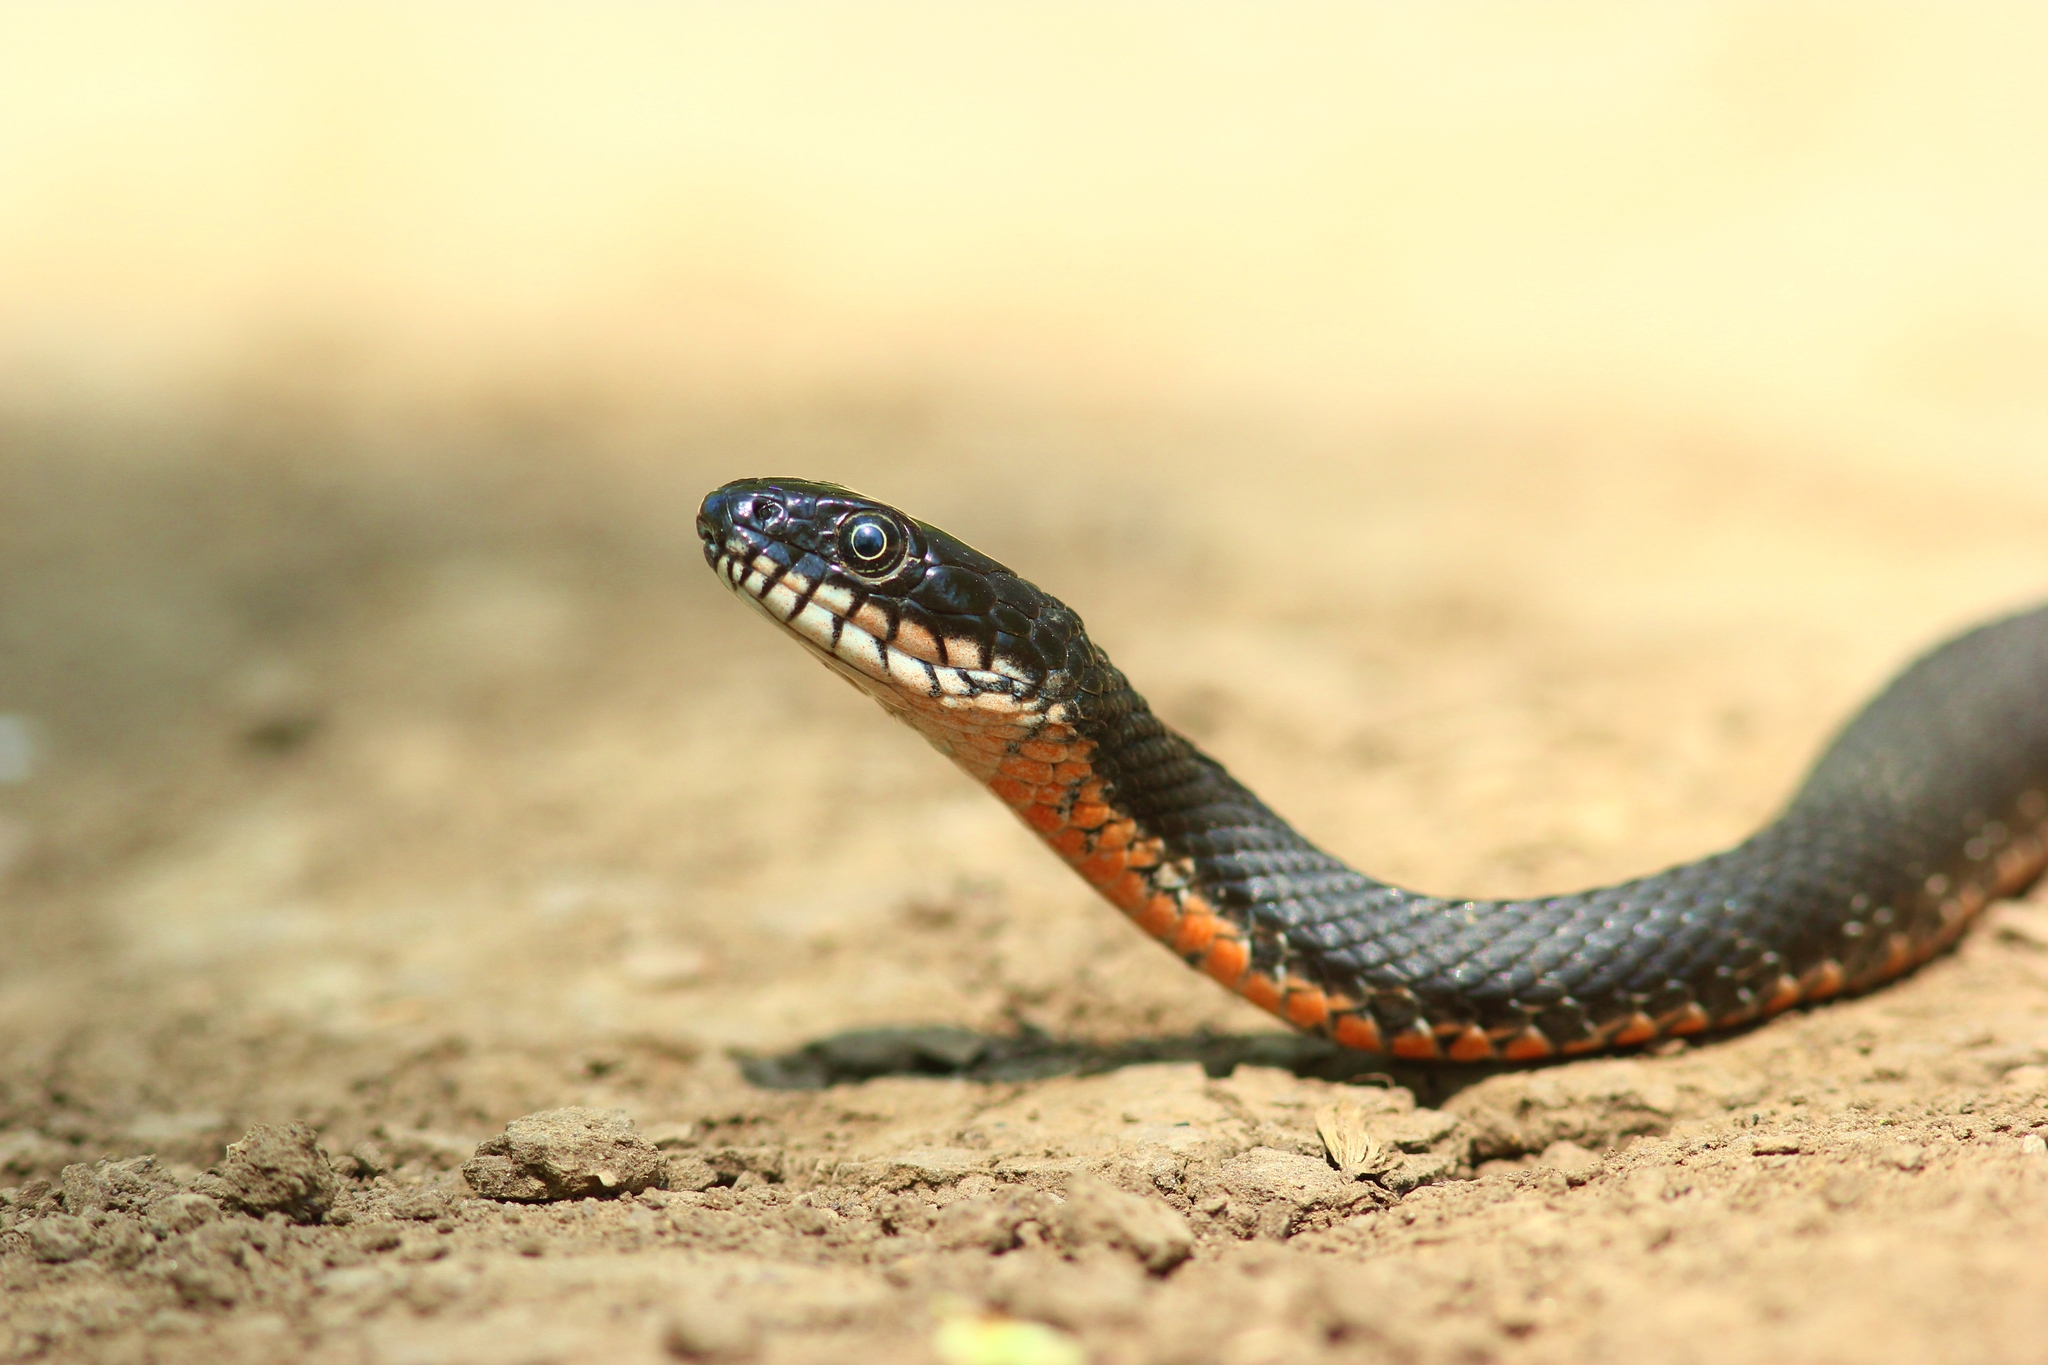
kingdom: Animalia
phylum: Chordata
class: Squamata
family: Colubridae
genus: Natrix
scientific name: Natrix tessellata
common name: Dice snake
